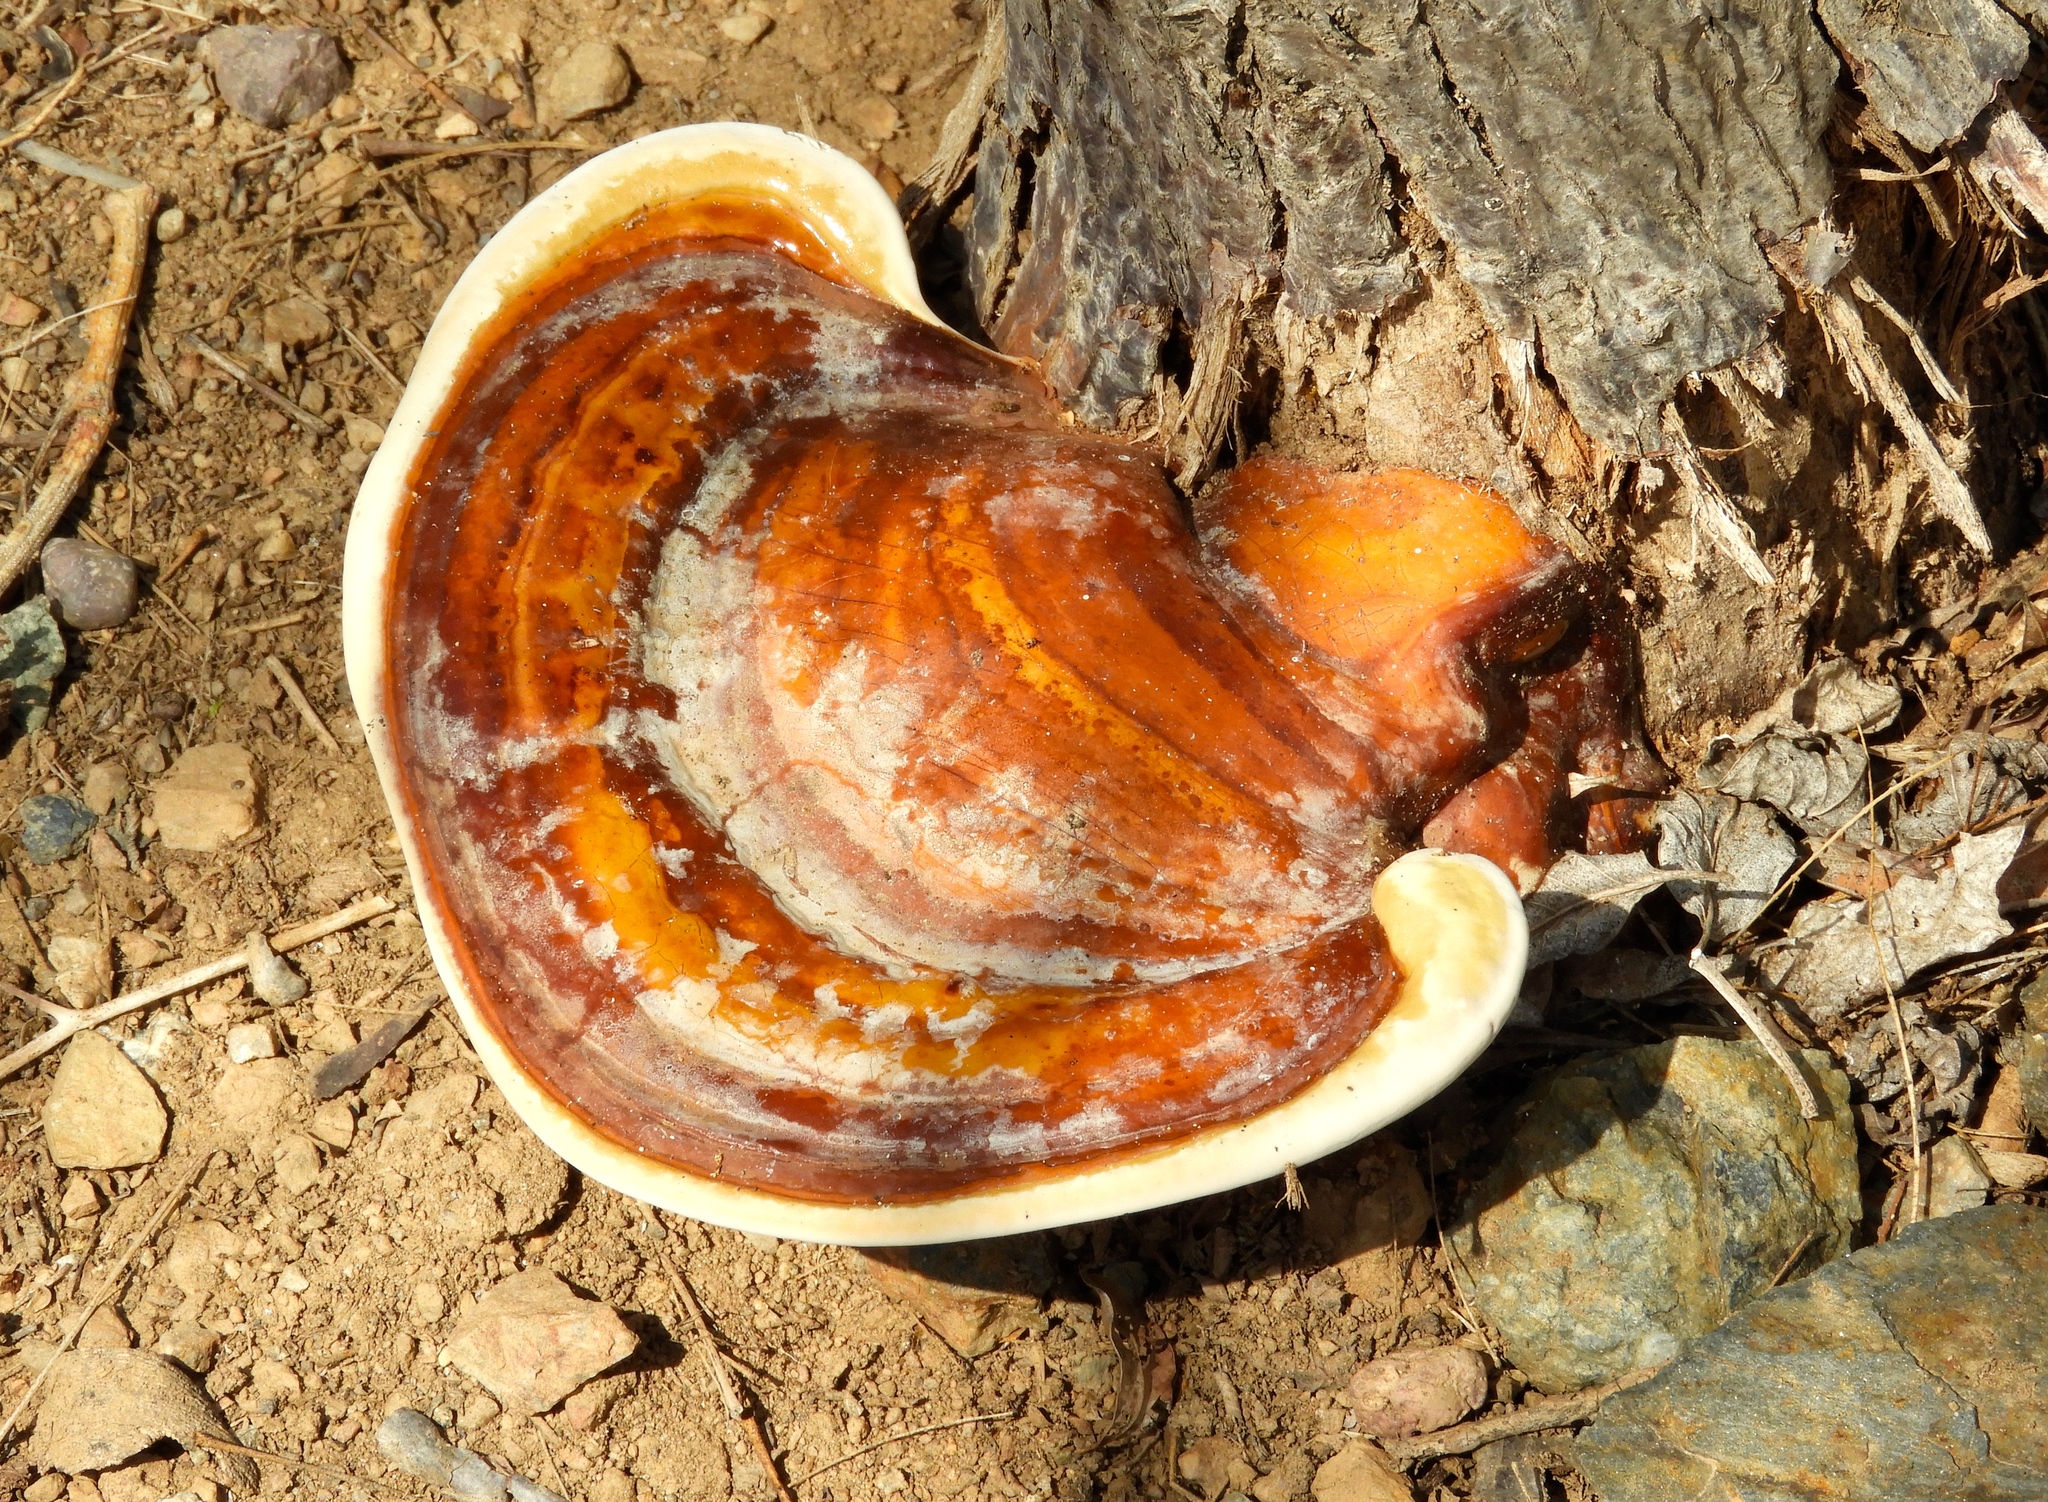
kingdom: Fungi
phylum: Basidiomycota
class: Agaricomycetes
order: Polyporales
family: Polyporaceae
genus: Ganoderma
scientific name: Ganoderma
